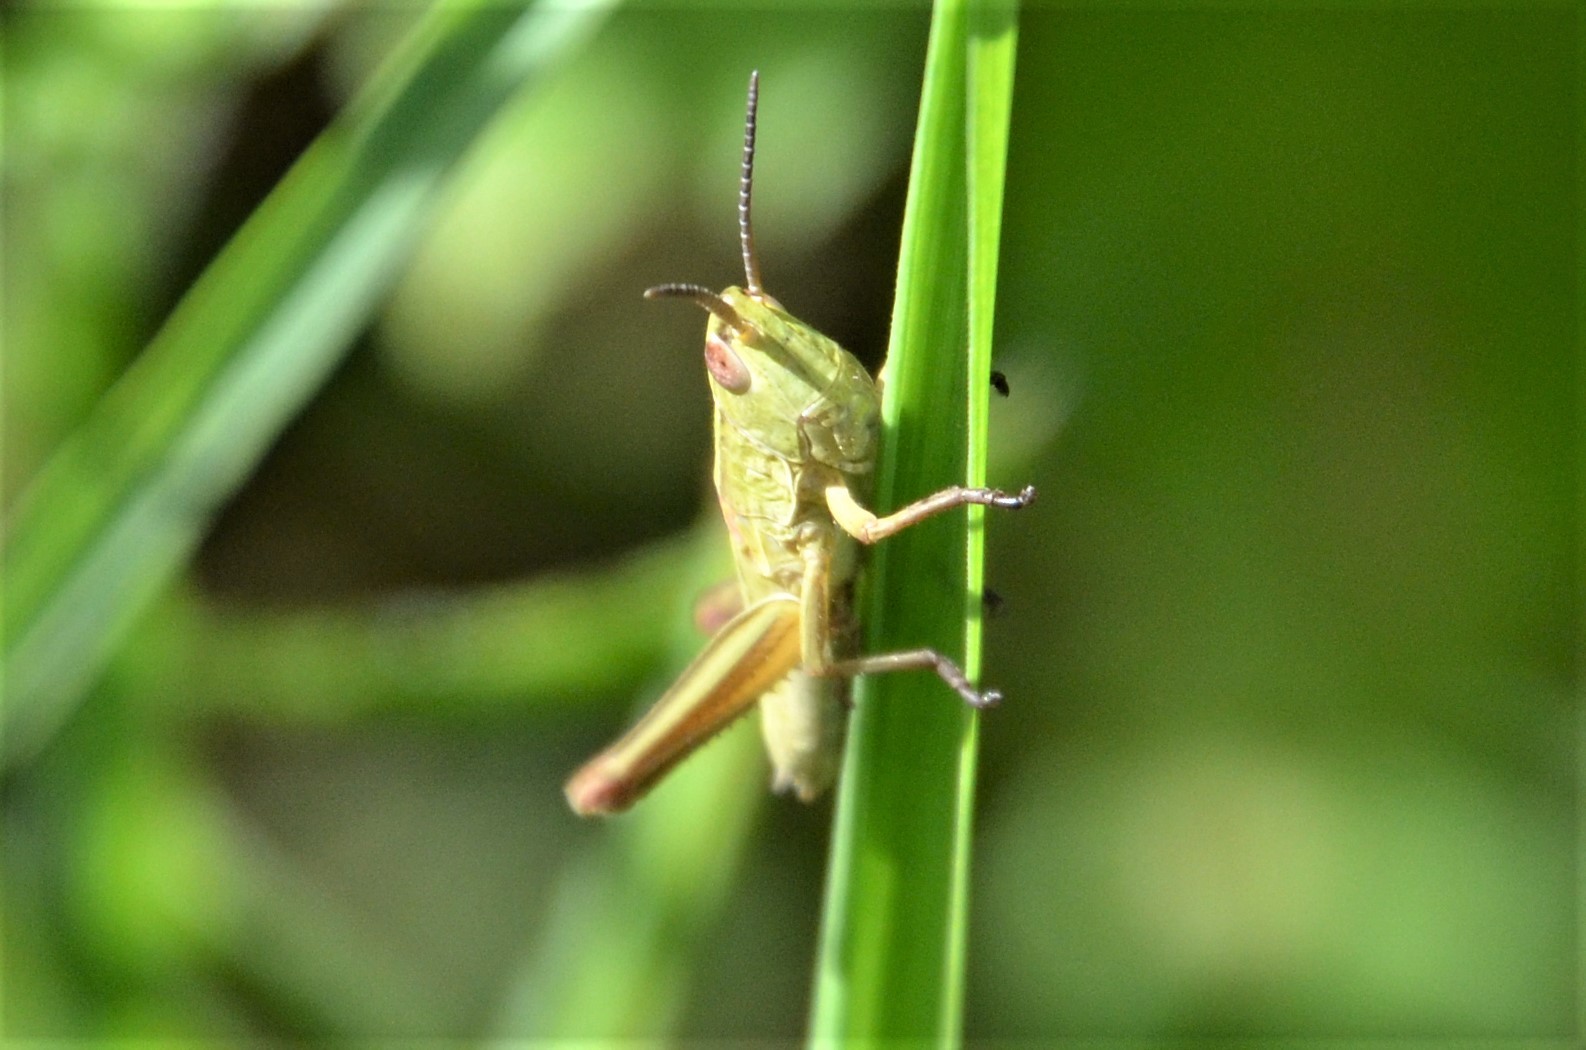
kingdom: Animalia
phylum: Arthropoda
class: Insecta
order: Orthoptera
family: Acrididae
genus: Euthystira
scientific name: Euthystira brachyptera
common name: Small gold grasshopper
